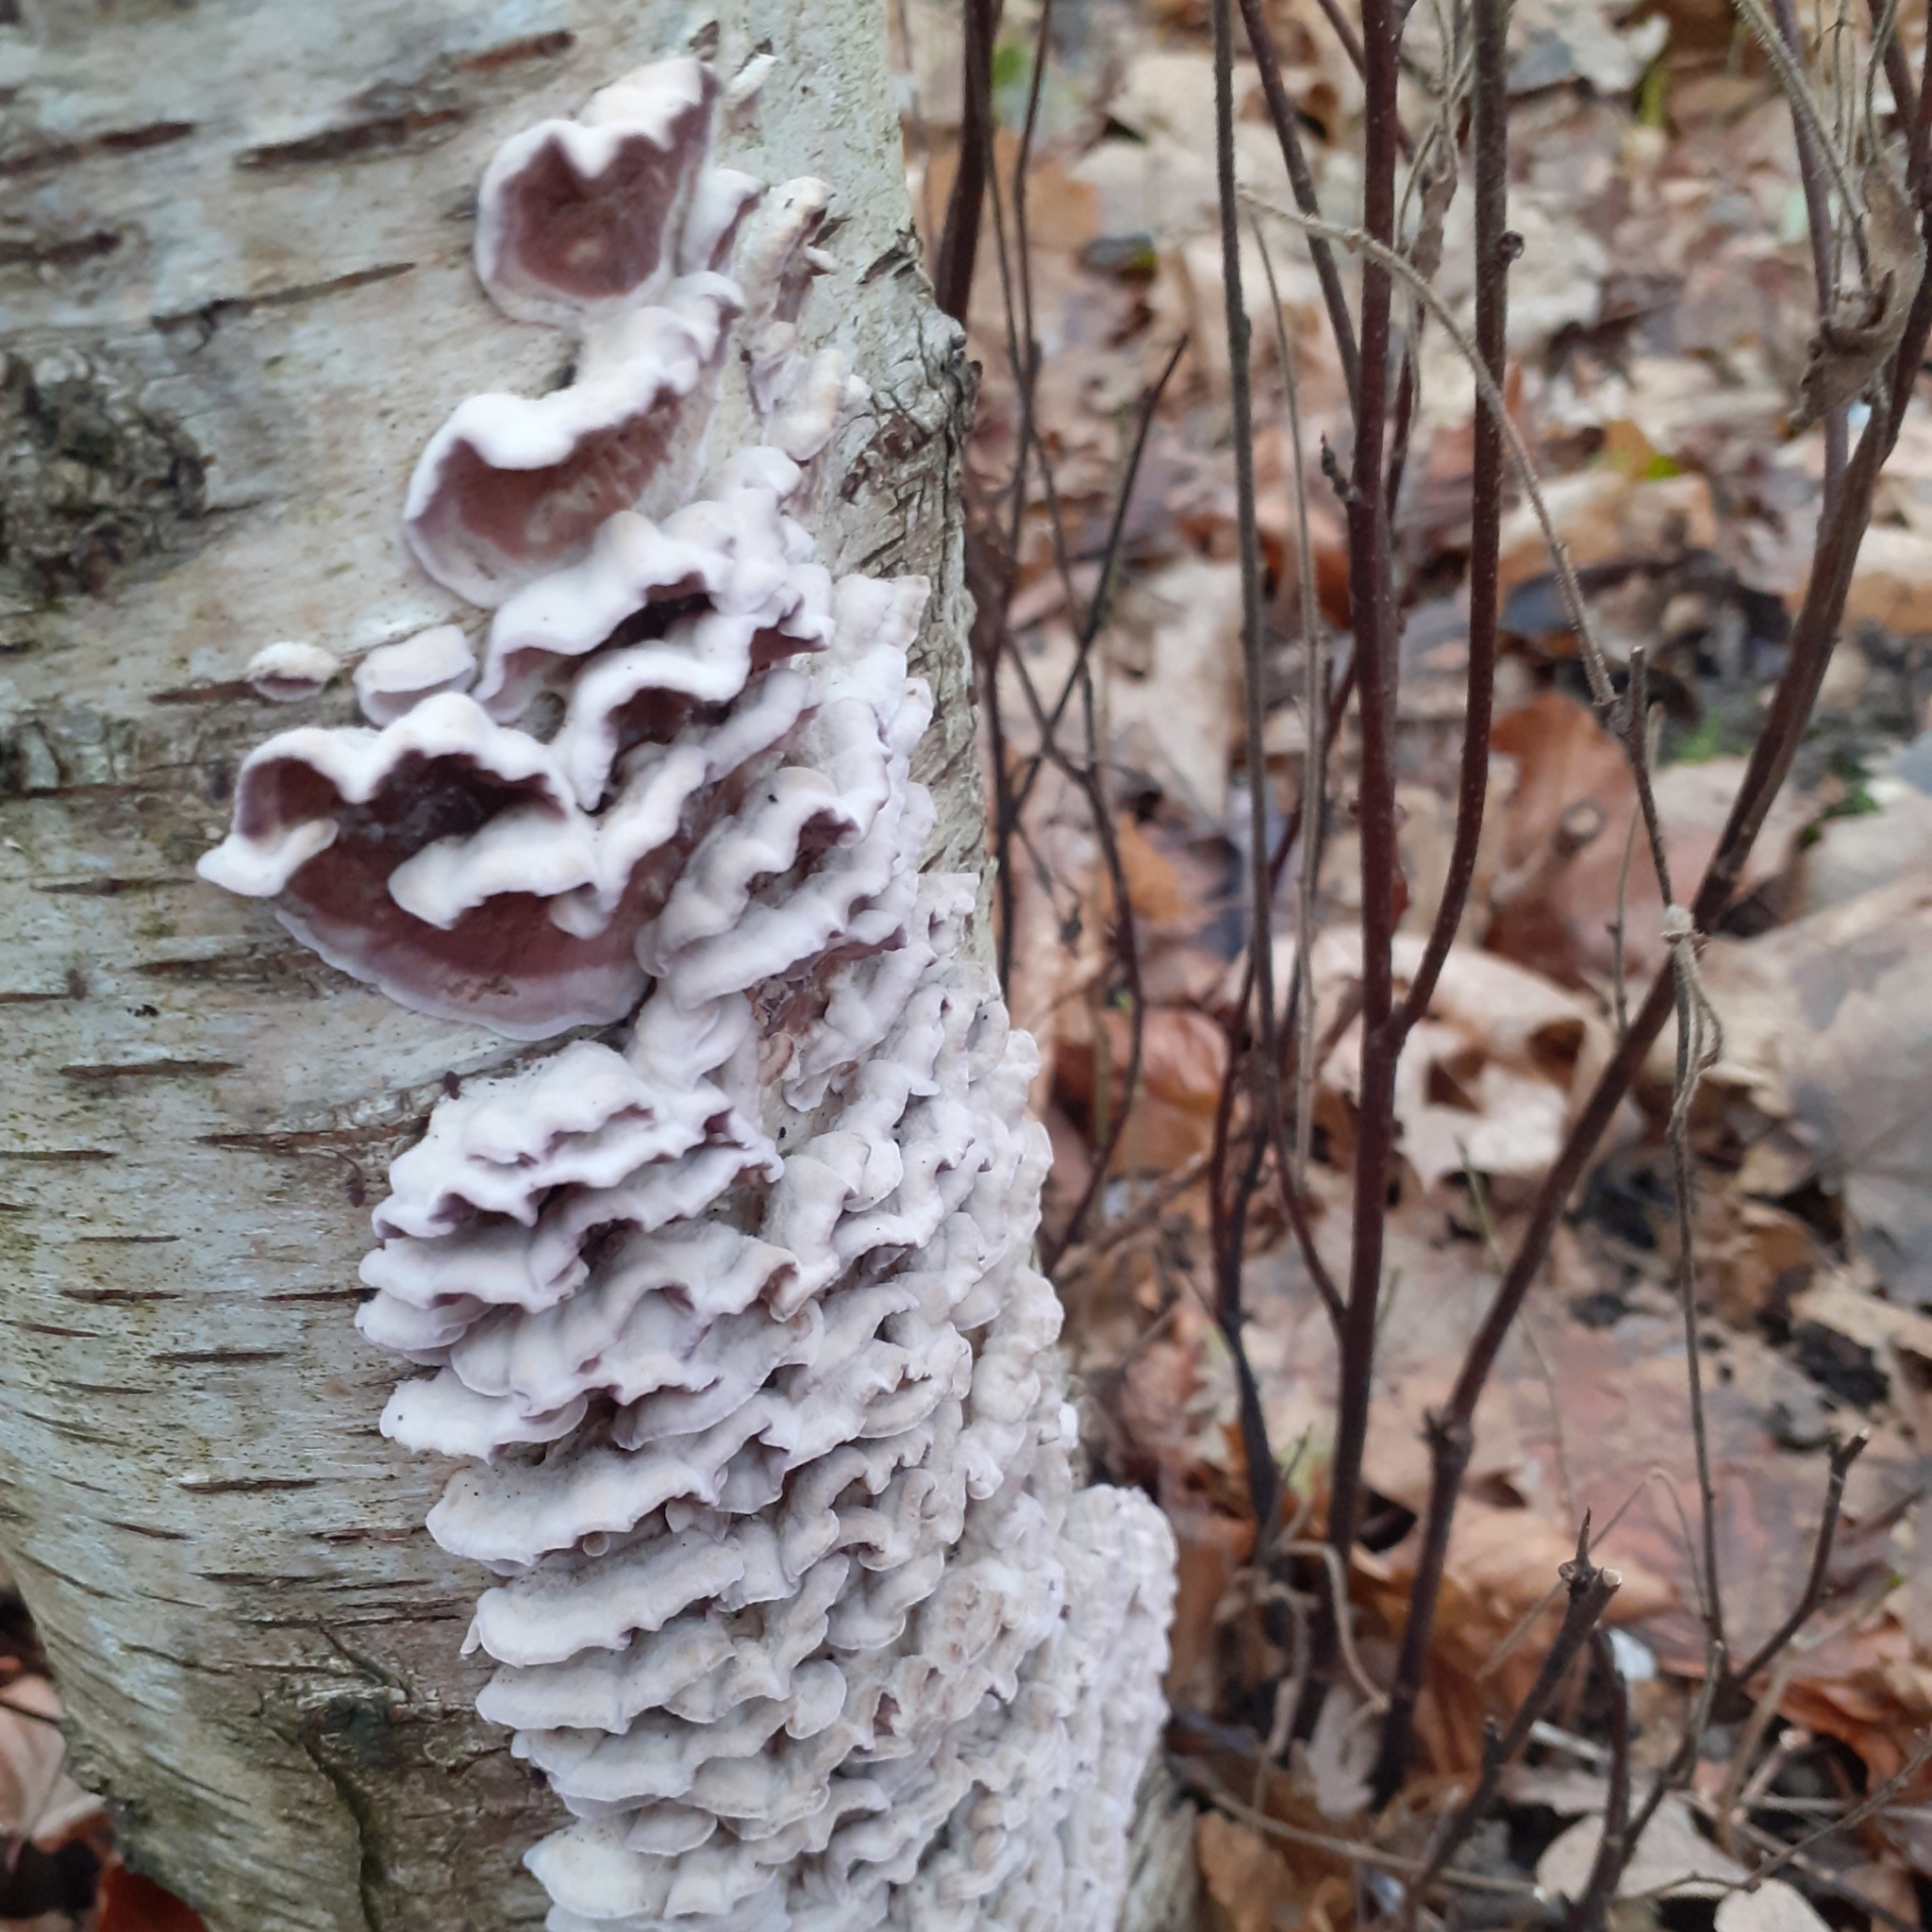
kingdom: Fungi
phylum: Basidiomycota
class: Agaricomycetes
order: Agaricales
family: Cyphellaceae
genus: Chondrostereum
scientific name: Chondrostereum purpureum
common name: Silver leaf disease
